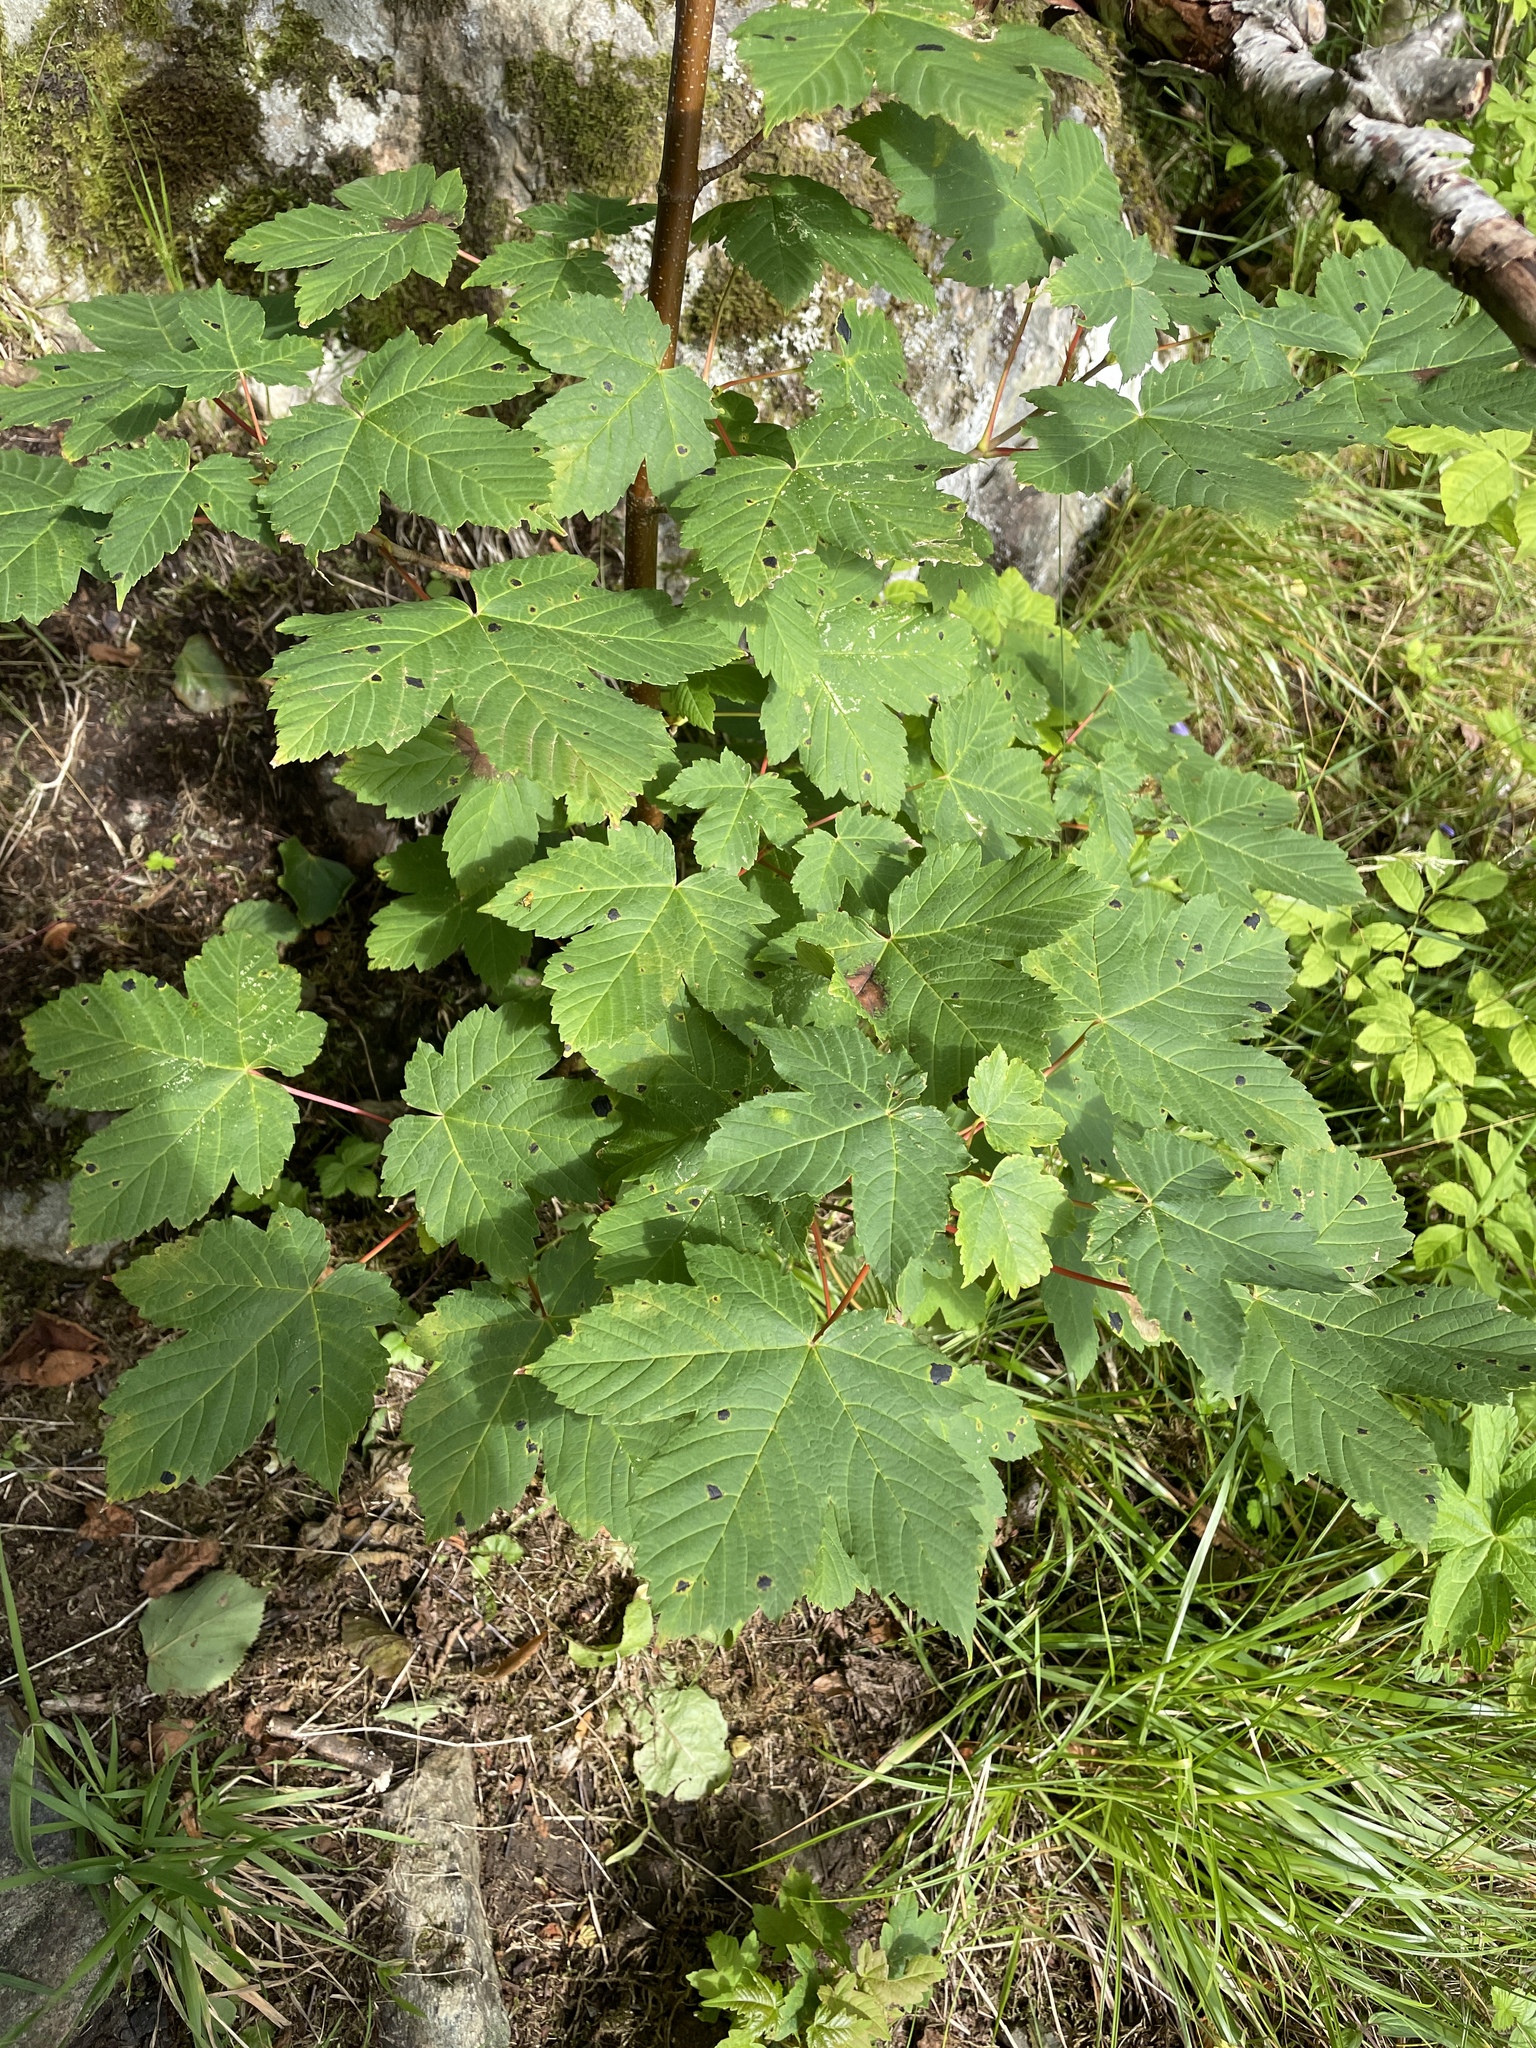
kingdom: Plantae
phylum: Tracheophyta
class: Magnoliopsida
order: Sapindales
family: Sapindaceae
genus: Acer
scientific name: Acer pseudoplatanus
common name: Sycamore
